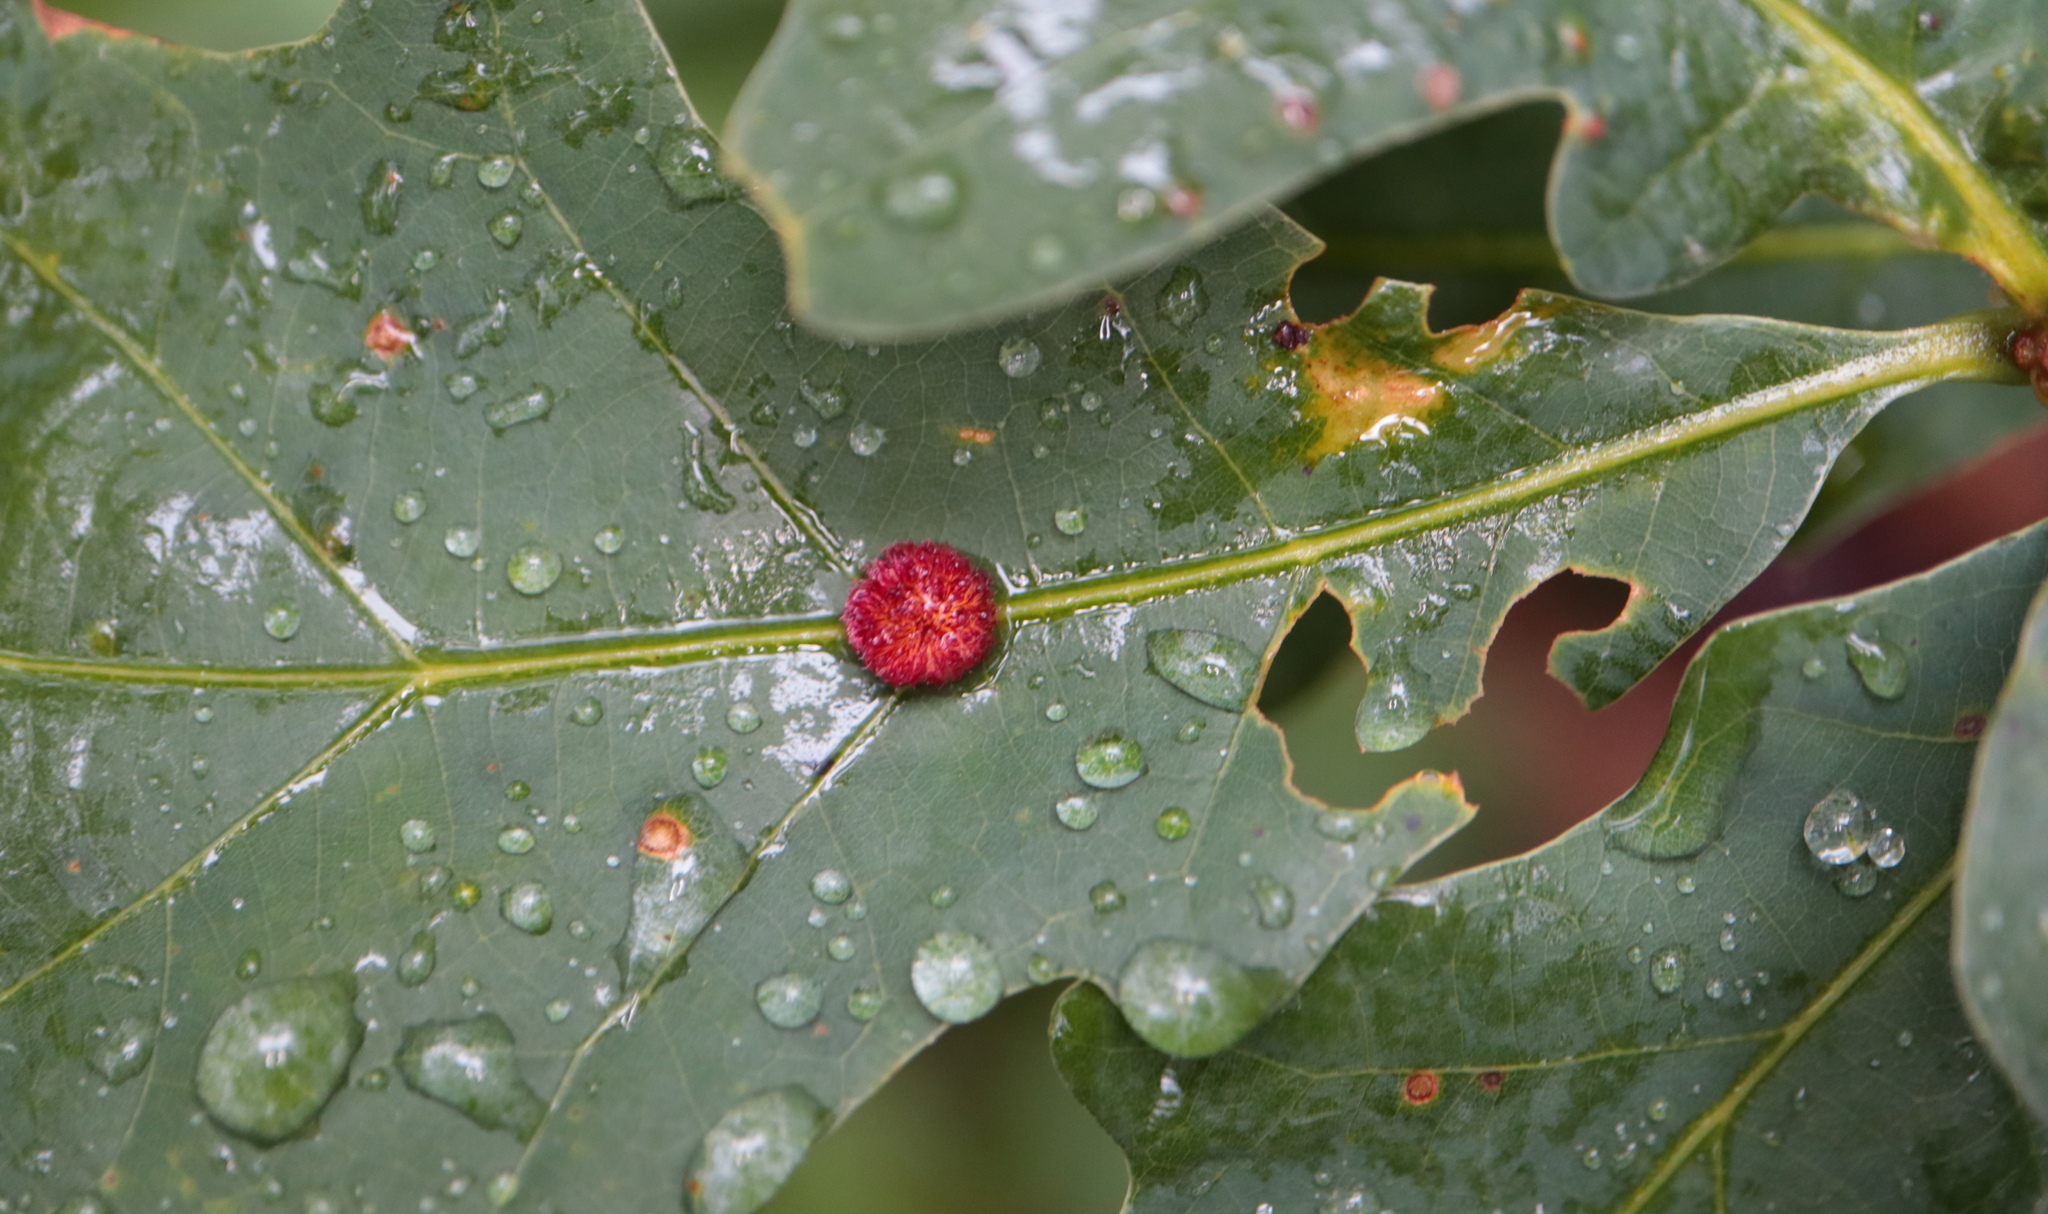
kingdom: Animalia
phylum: Arthropoda
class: Insecta
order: Hymenoptera
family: Cynipidae
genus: Acraspis
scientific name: Acraspis erinacei
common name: Hedgehog gall wasp
